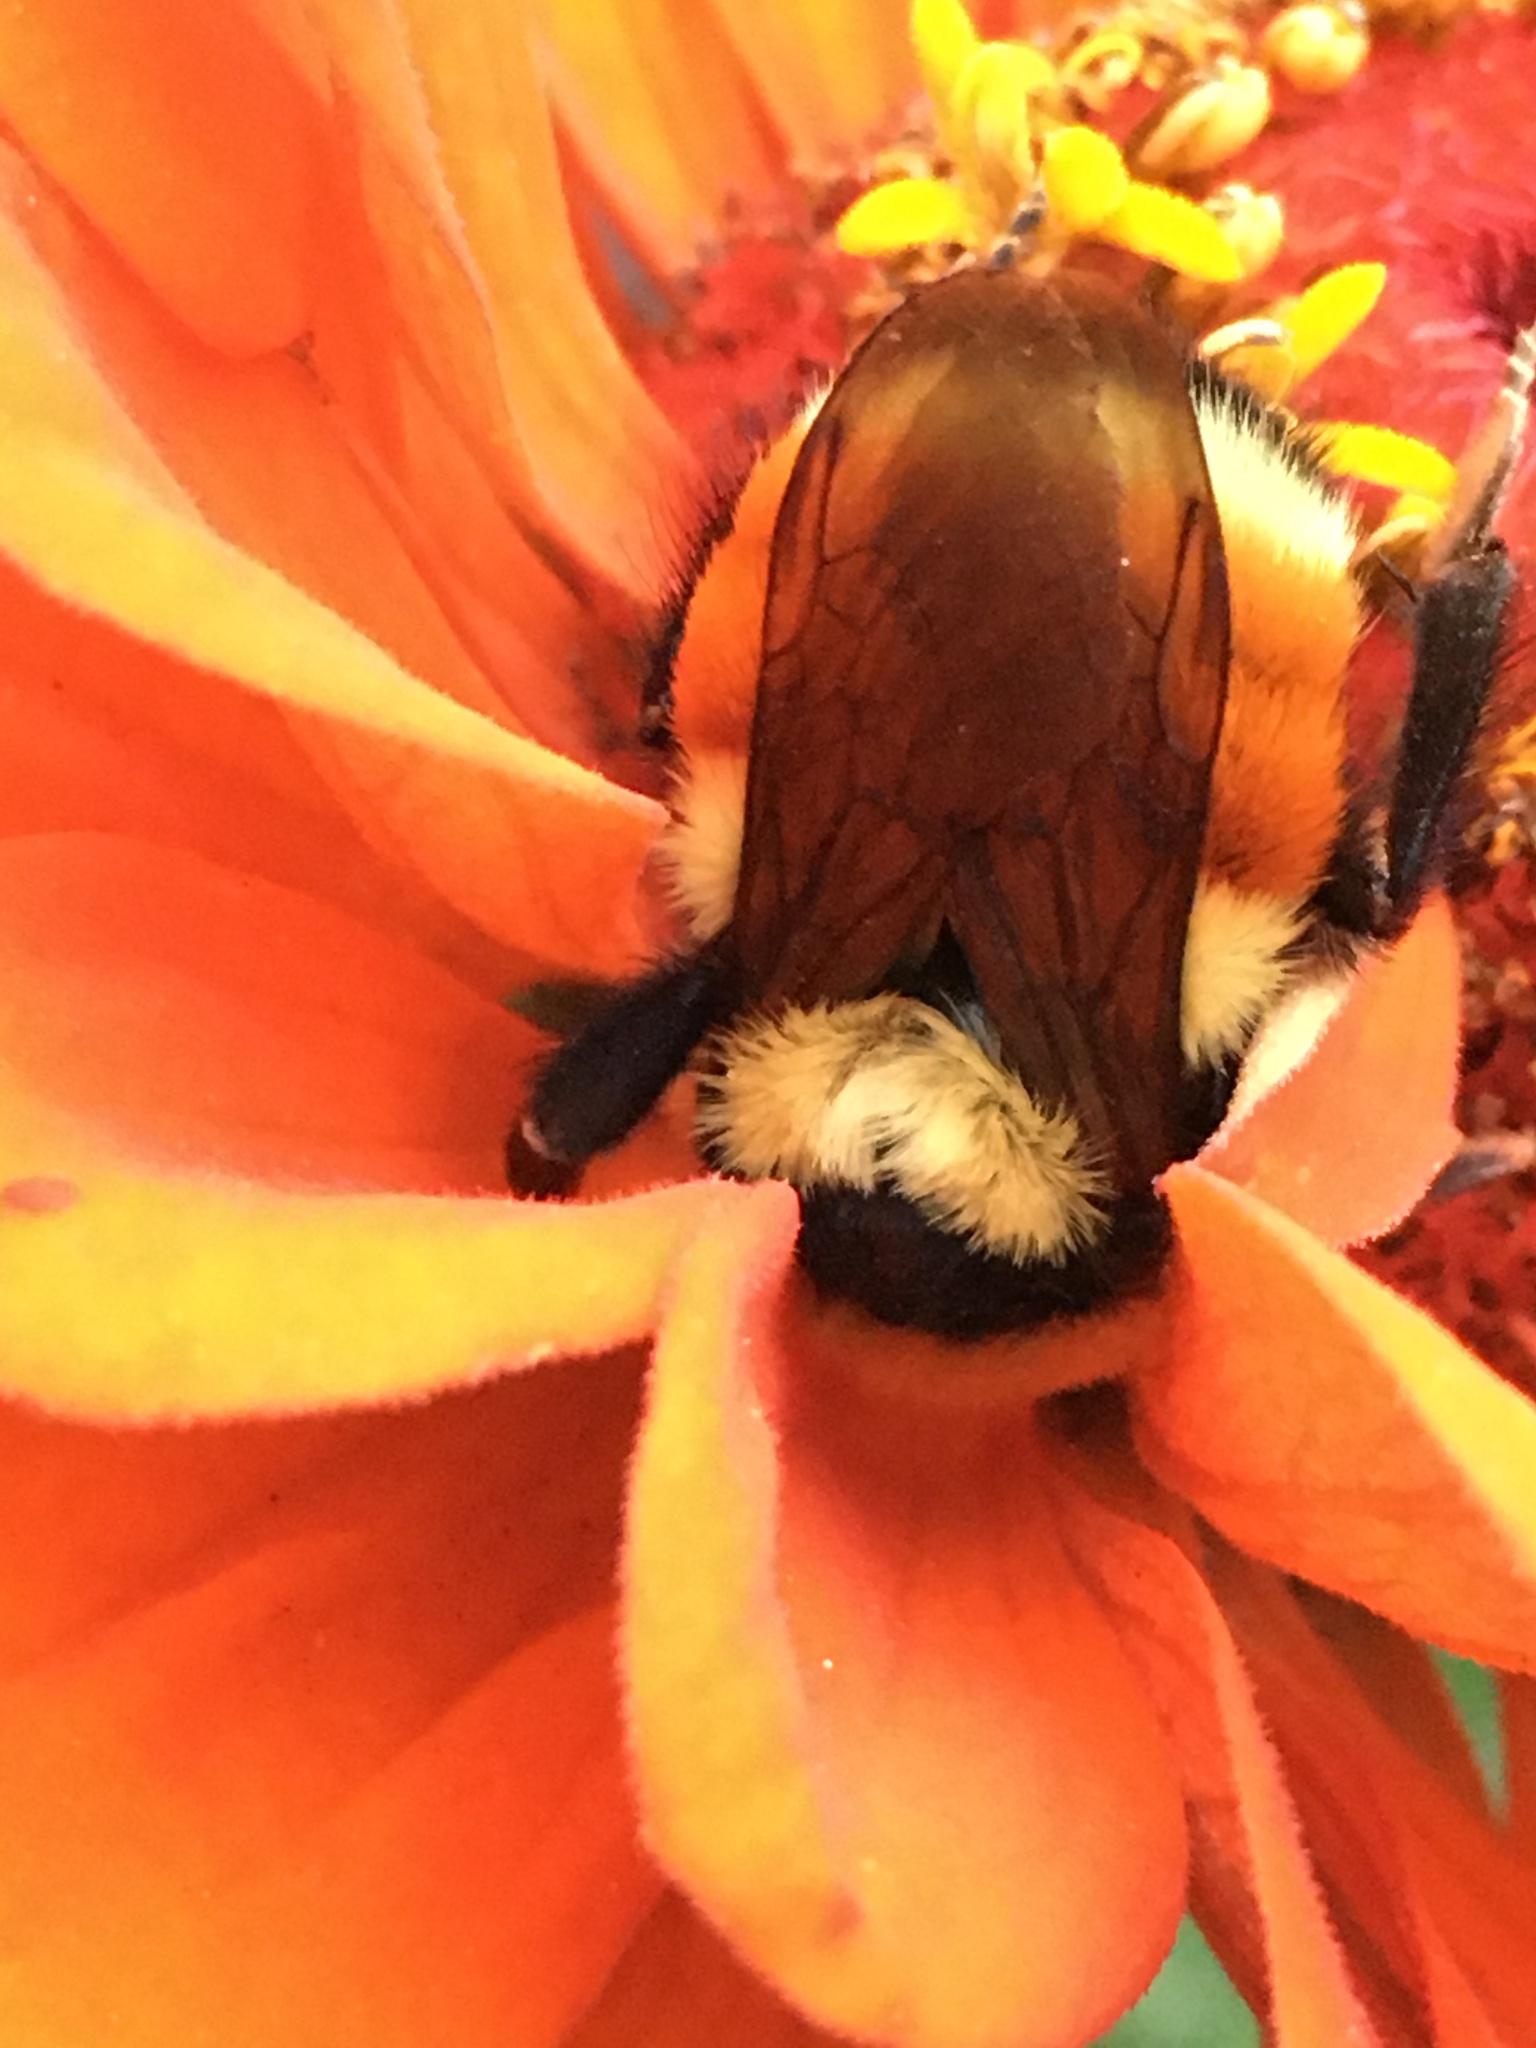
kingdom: Animalia
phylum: Arthropoda
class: Insecta
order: Hymenoptera
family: Apidae
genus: Bombus
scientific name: Bombus huntii
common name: Hunt bumble bee
